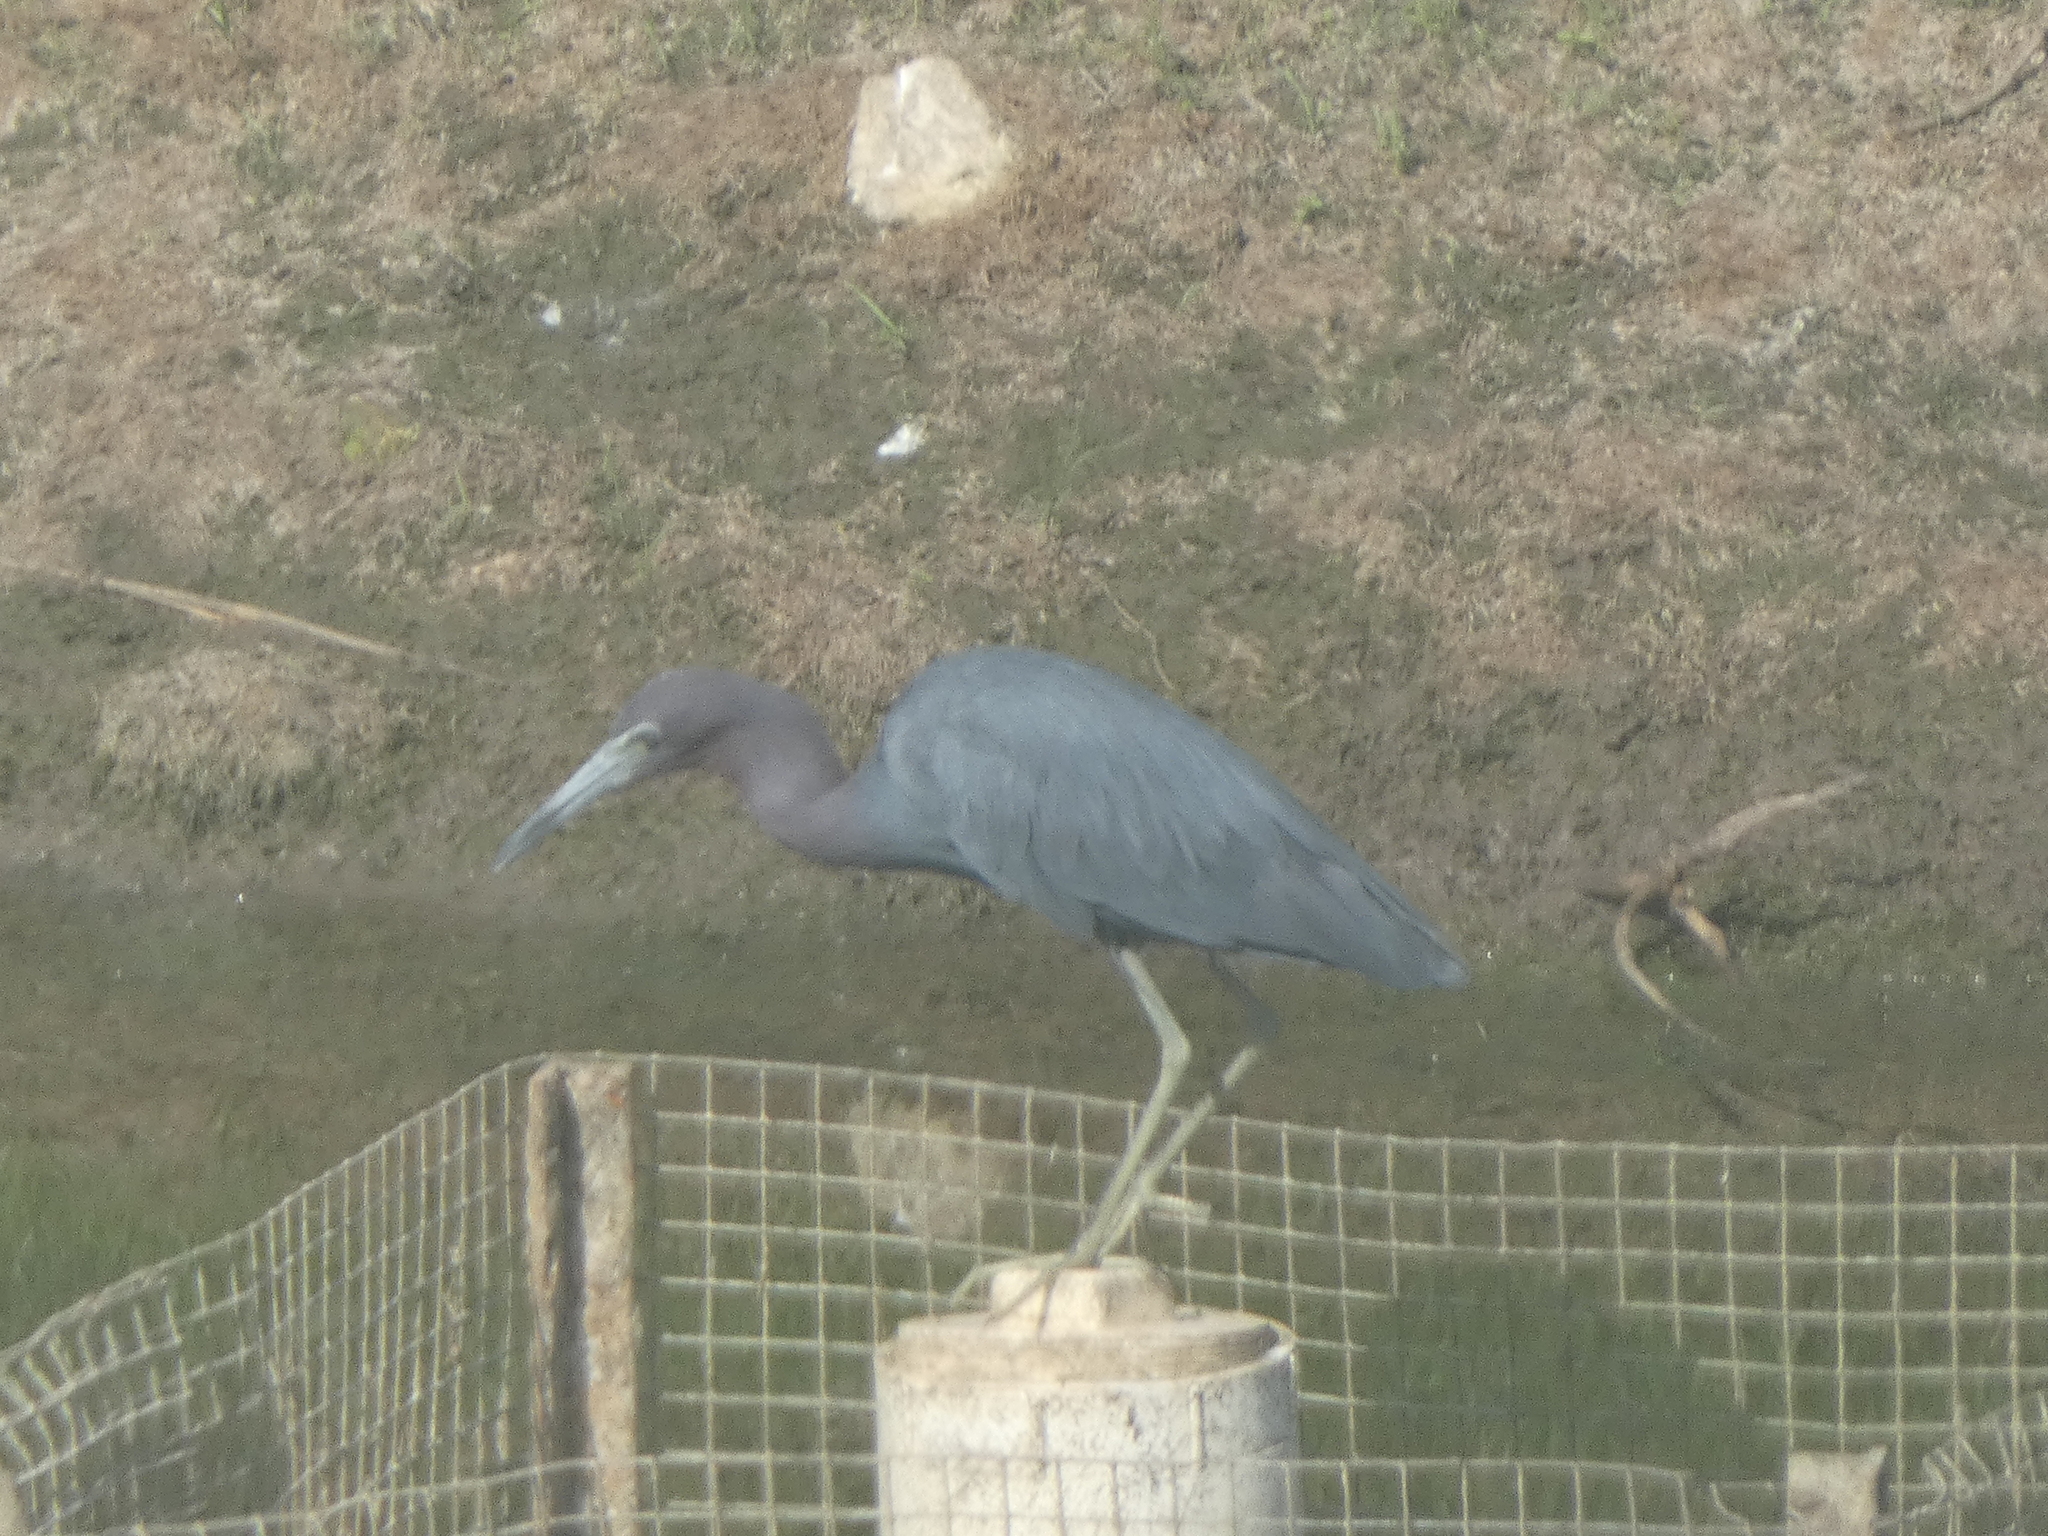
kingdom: Animalia
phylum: Chordata
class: Aves
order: Pelecaniformes
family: Ardeidae
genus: Egretta
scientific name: Egretta caerulea
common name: Little blue heron
